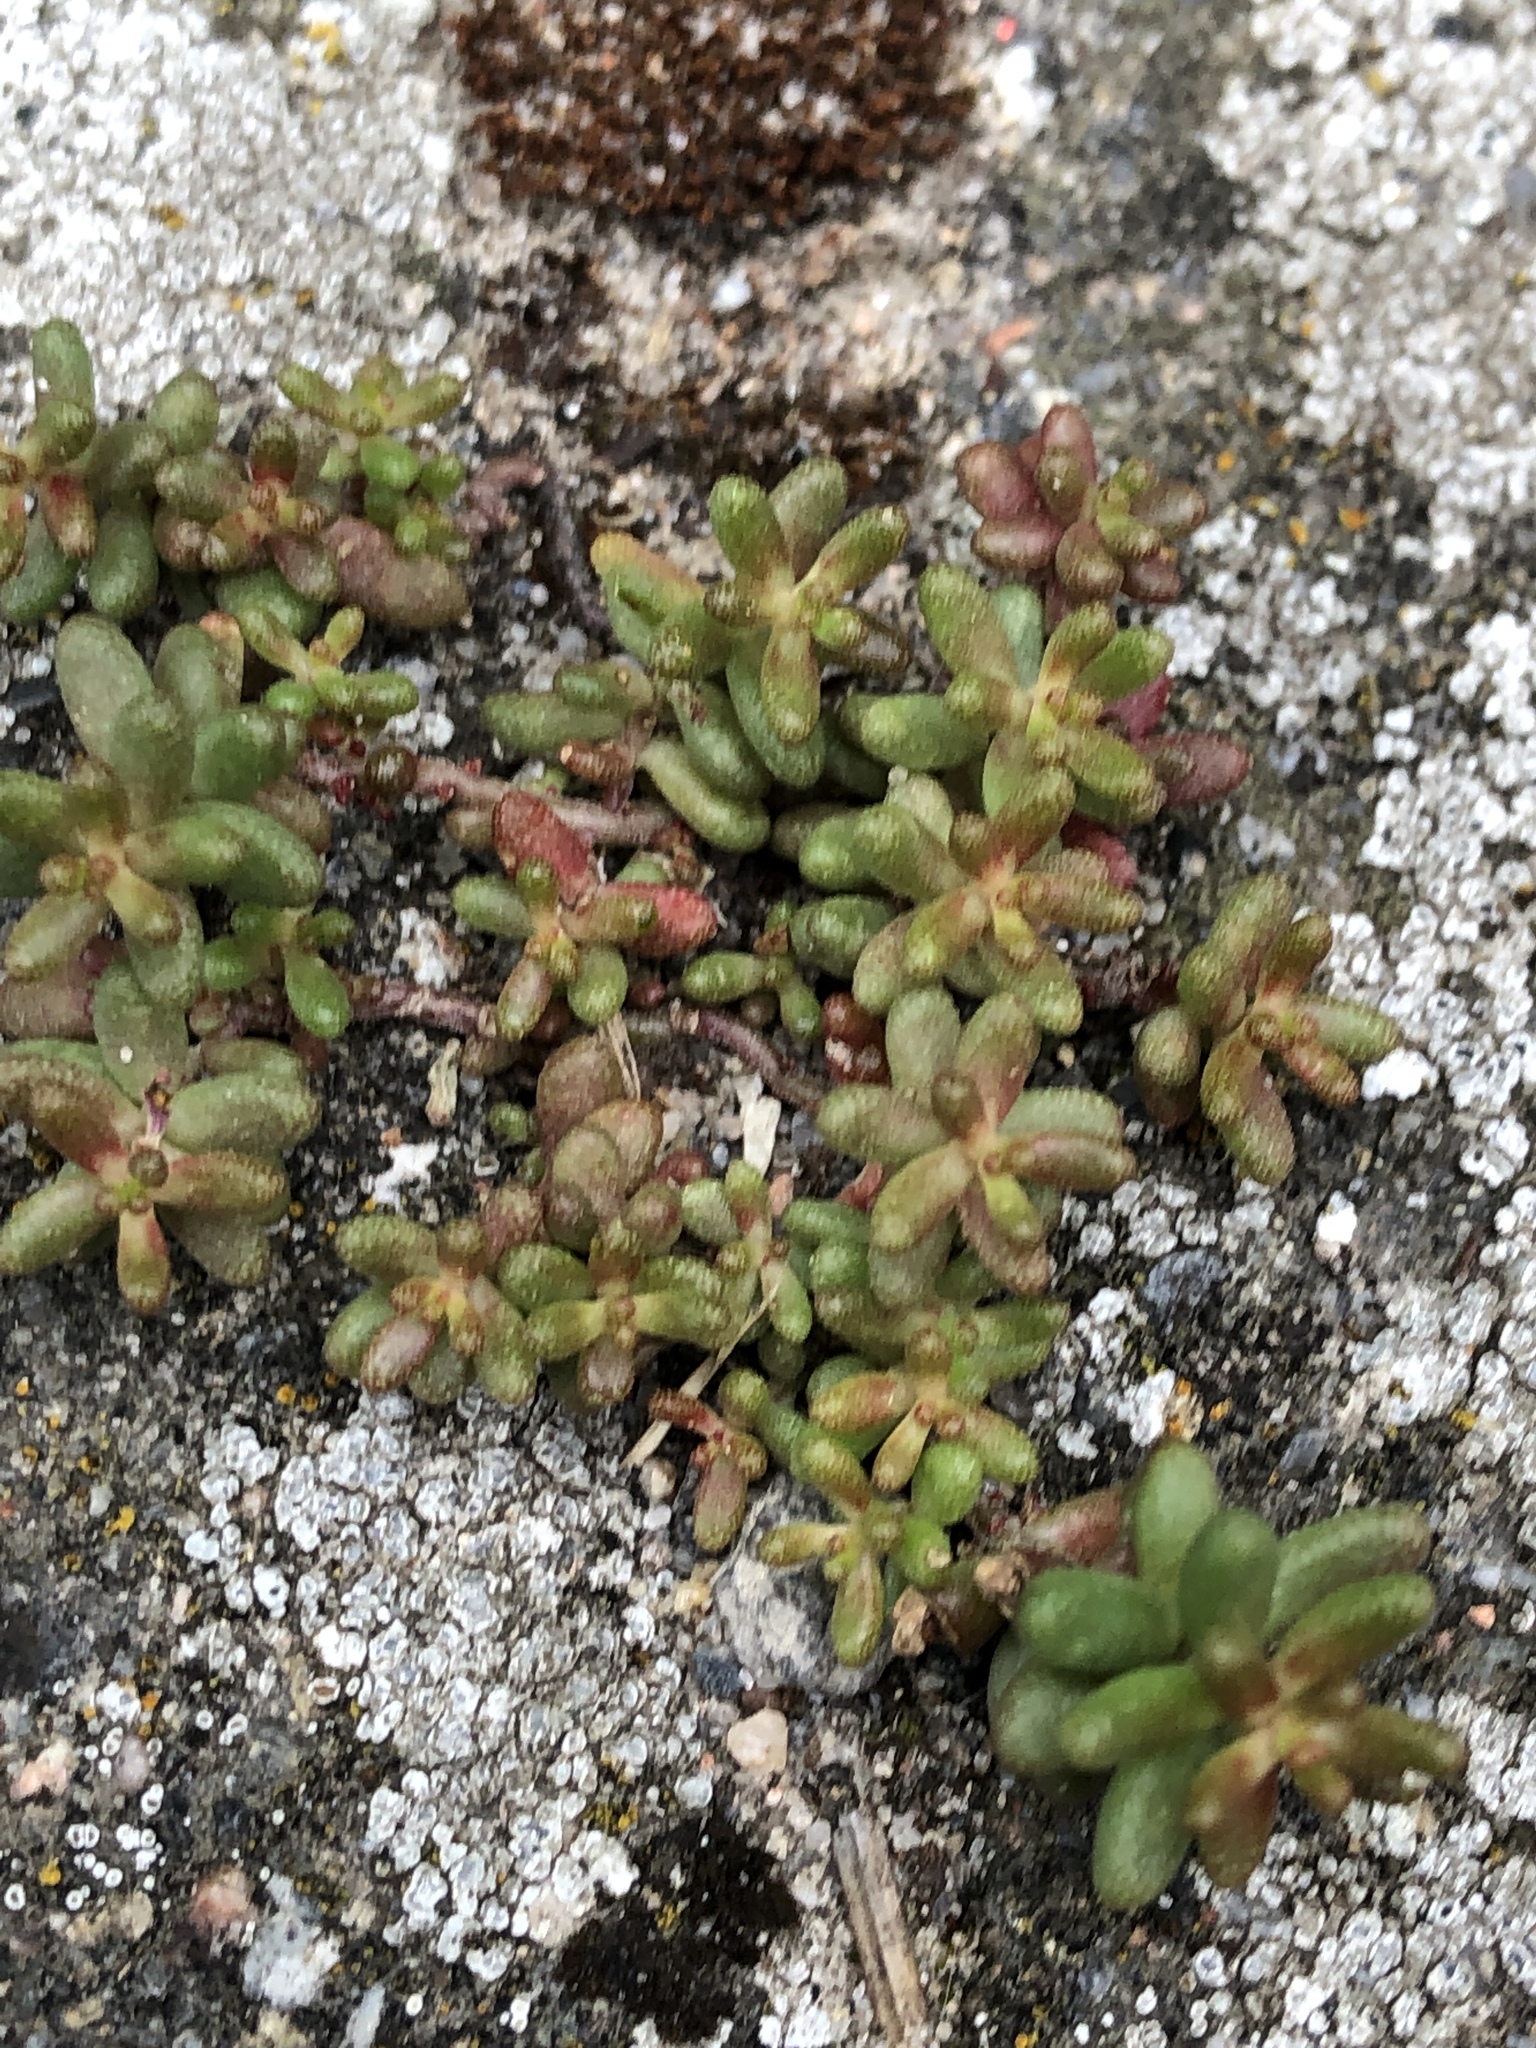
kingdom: Plantae
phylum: Tracheophyta
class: Magnoliopsida
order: Saxifragales
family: Crassulaceae
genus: Sedum
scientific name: Sedum album
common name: White stonecrop
